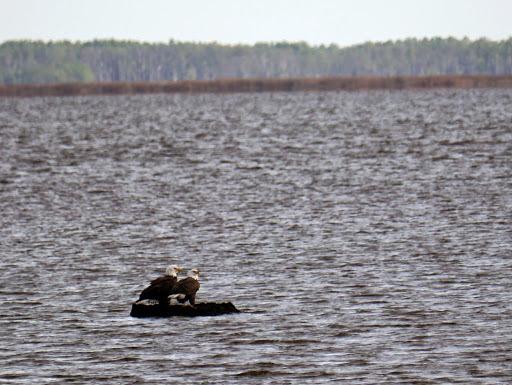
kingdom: Animalia
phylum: Chordata
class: Aves
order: Accipitriformes
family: Accipitridae
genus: Haliaeetus
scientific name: Haliaeetus leucocephalus
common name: Bald eagle
